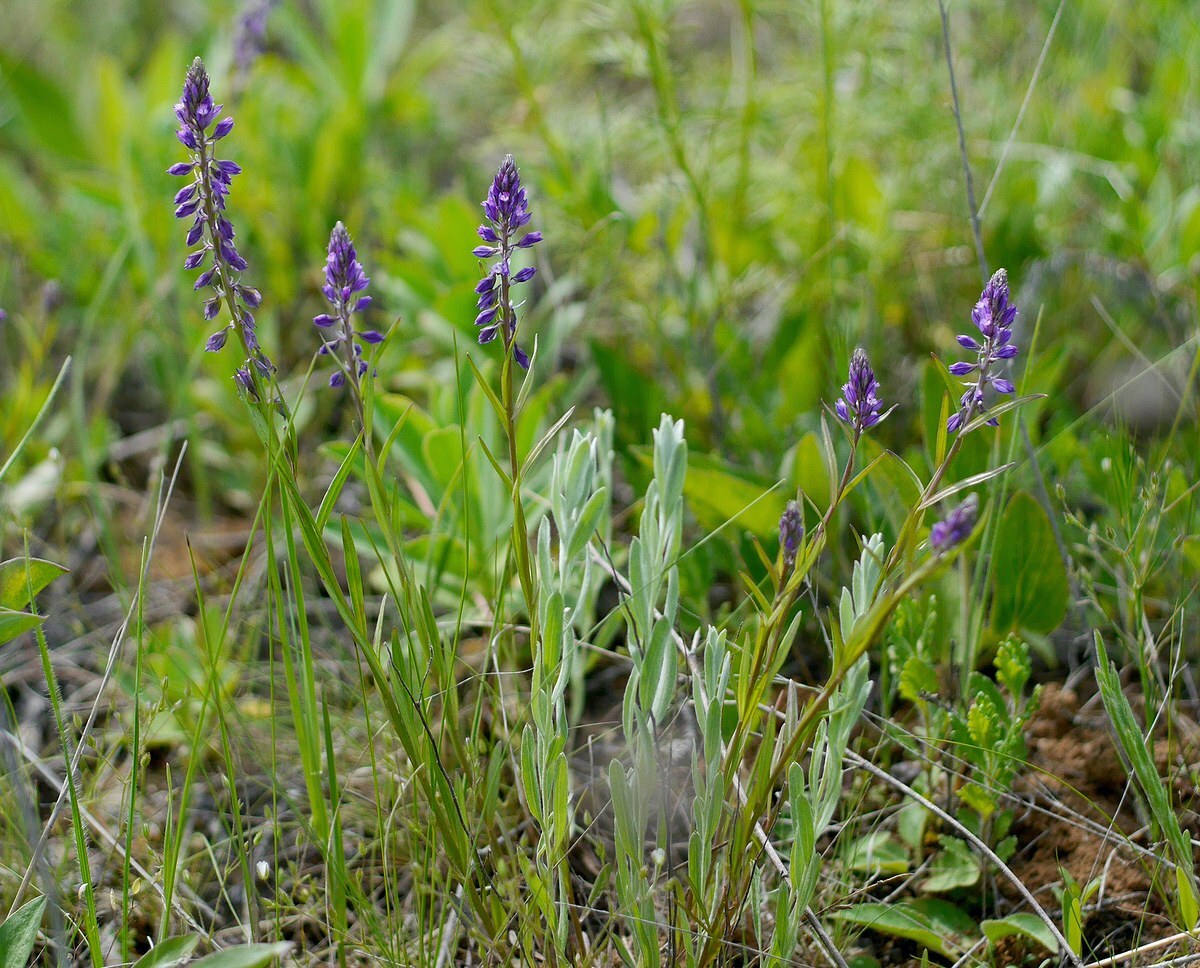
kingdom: Plantae
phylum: Tracheophyta
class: Magnoliopsida
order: Fabales
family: Polygalaceae
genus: Polygala
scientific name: Polygala comosa
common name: Tufted milkwort
